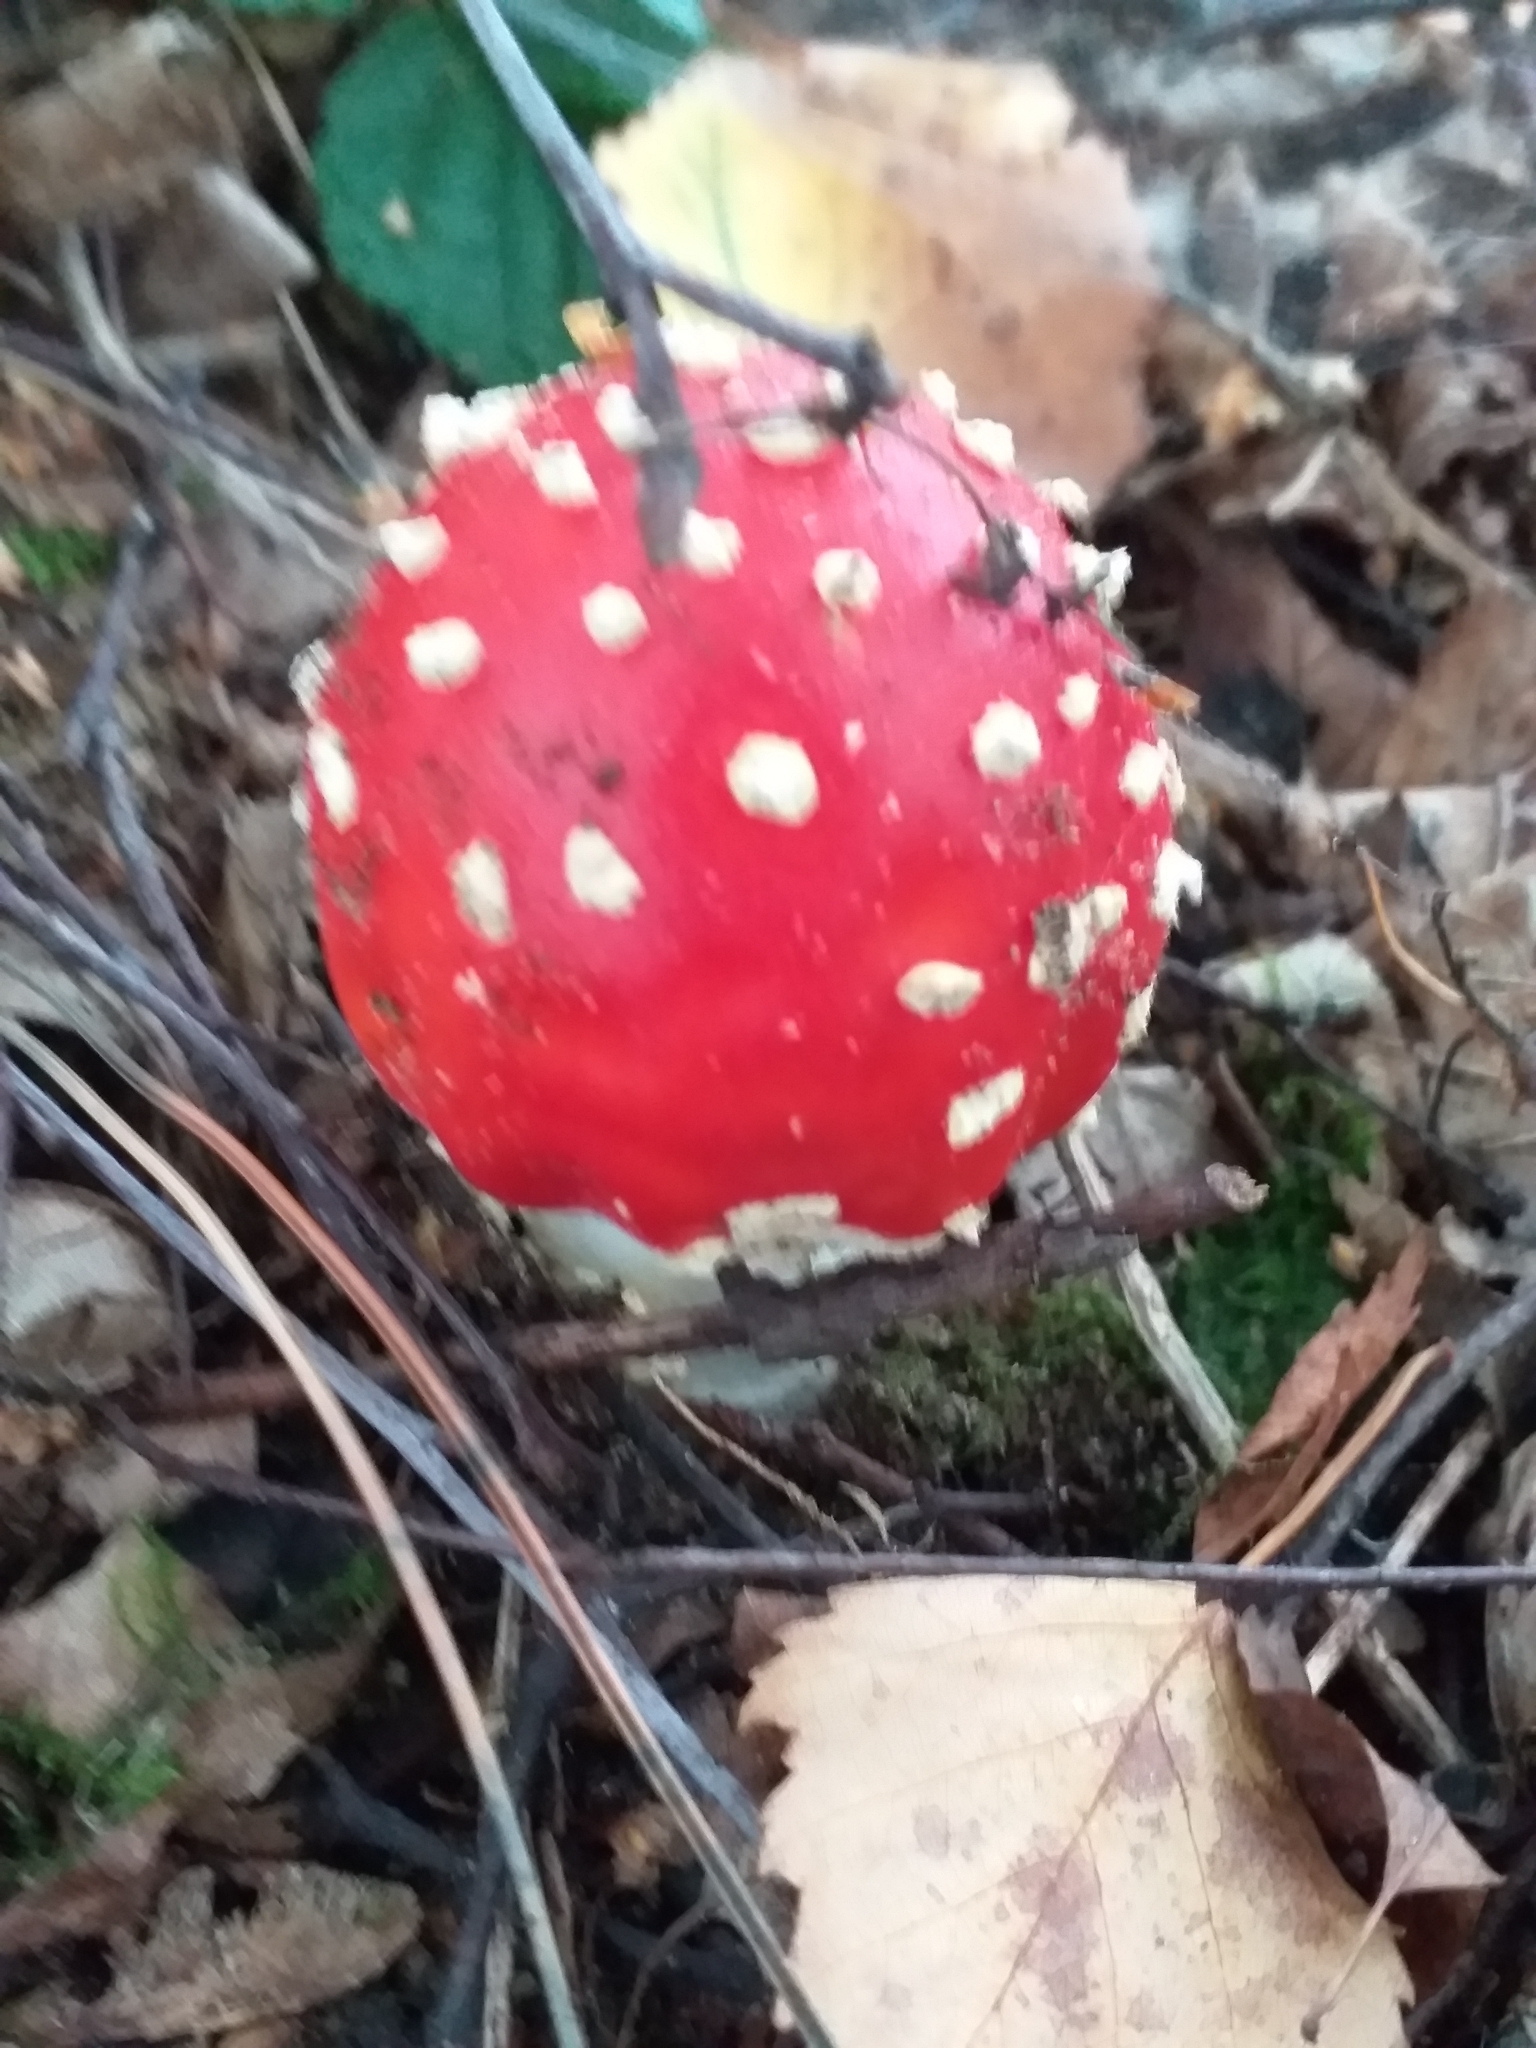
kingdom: Fungi
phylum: Basidiomycota
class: Agaricomycetes
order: Agaricales
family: Amanitaceae
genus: Amanita
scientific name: Amanita muscaria
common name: Fly agaric
